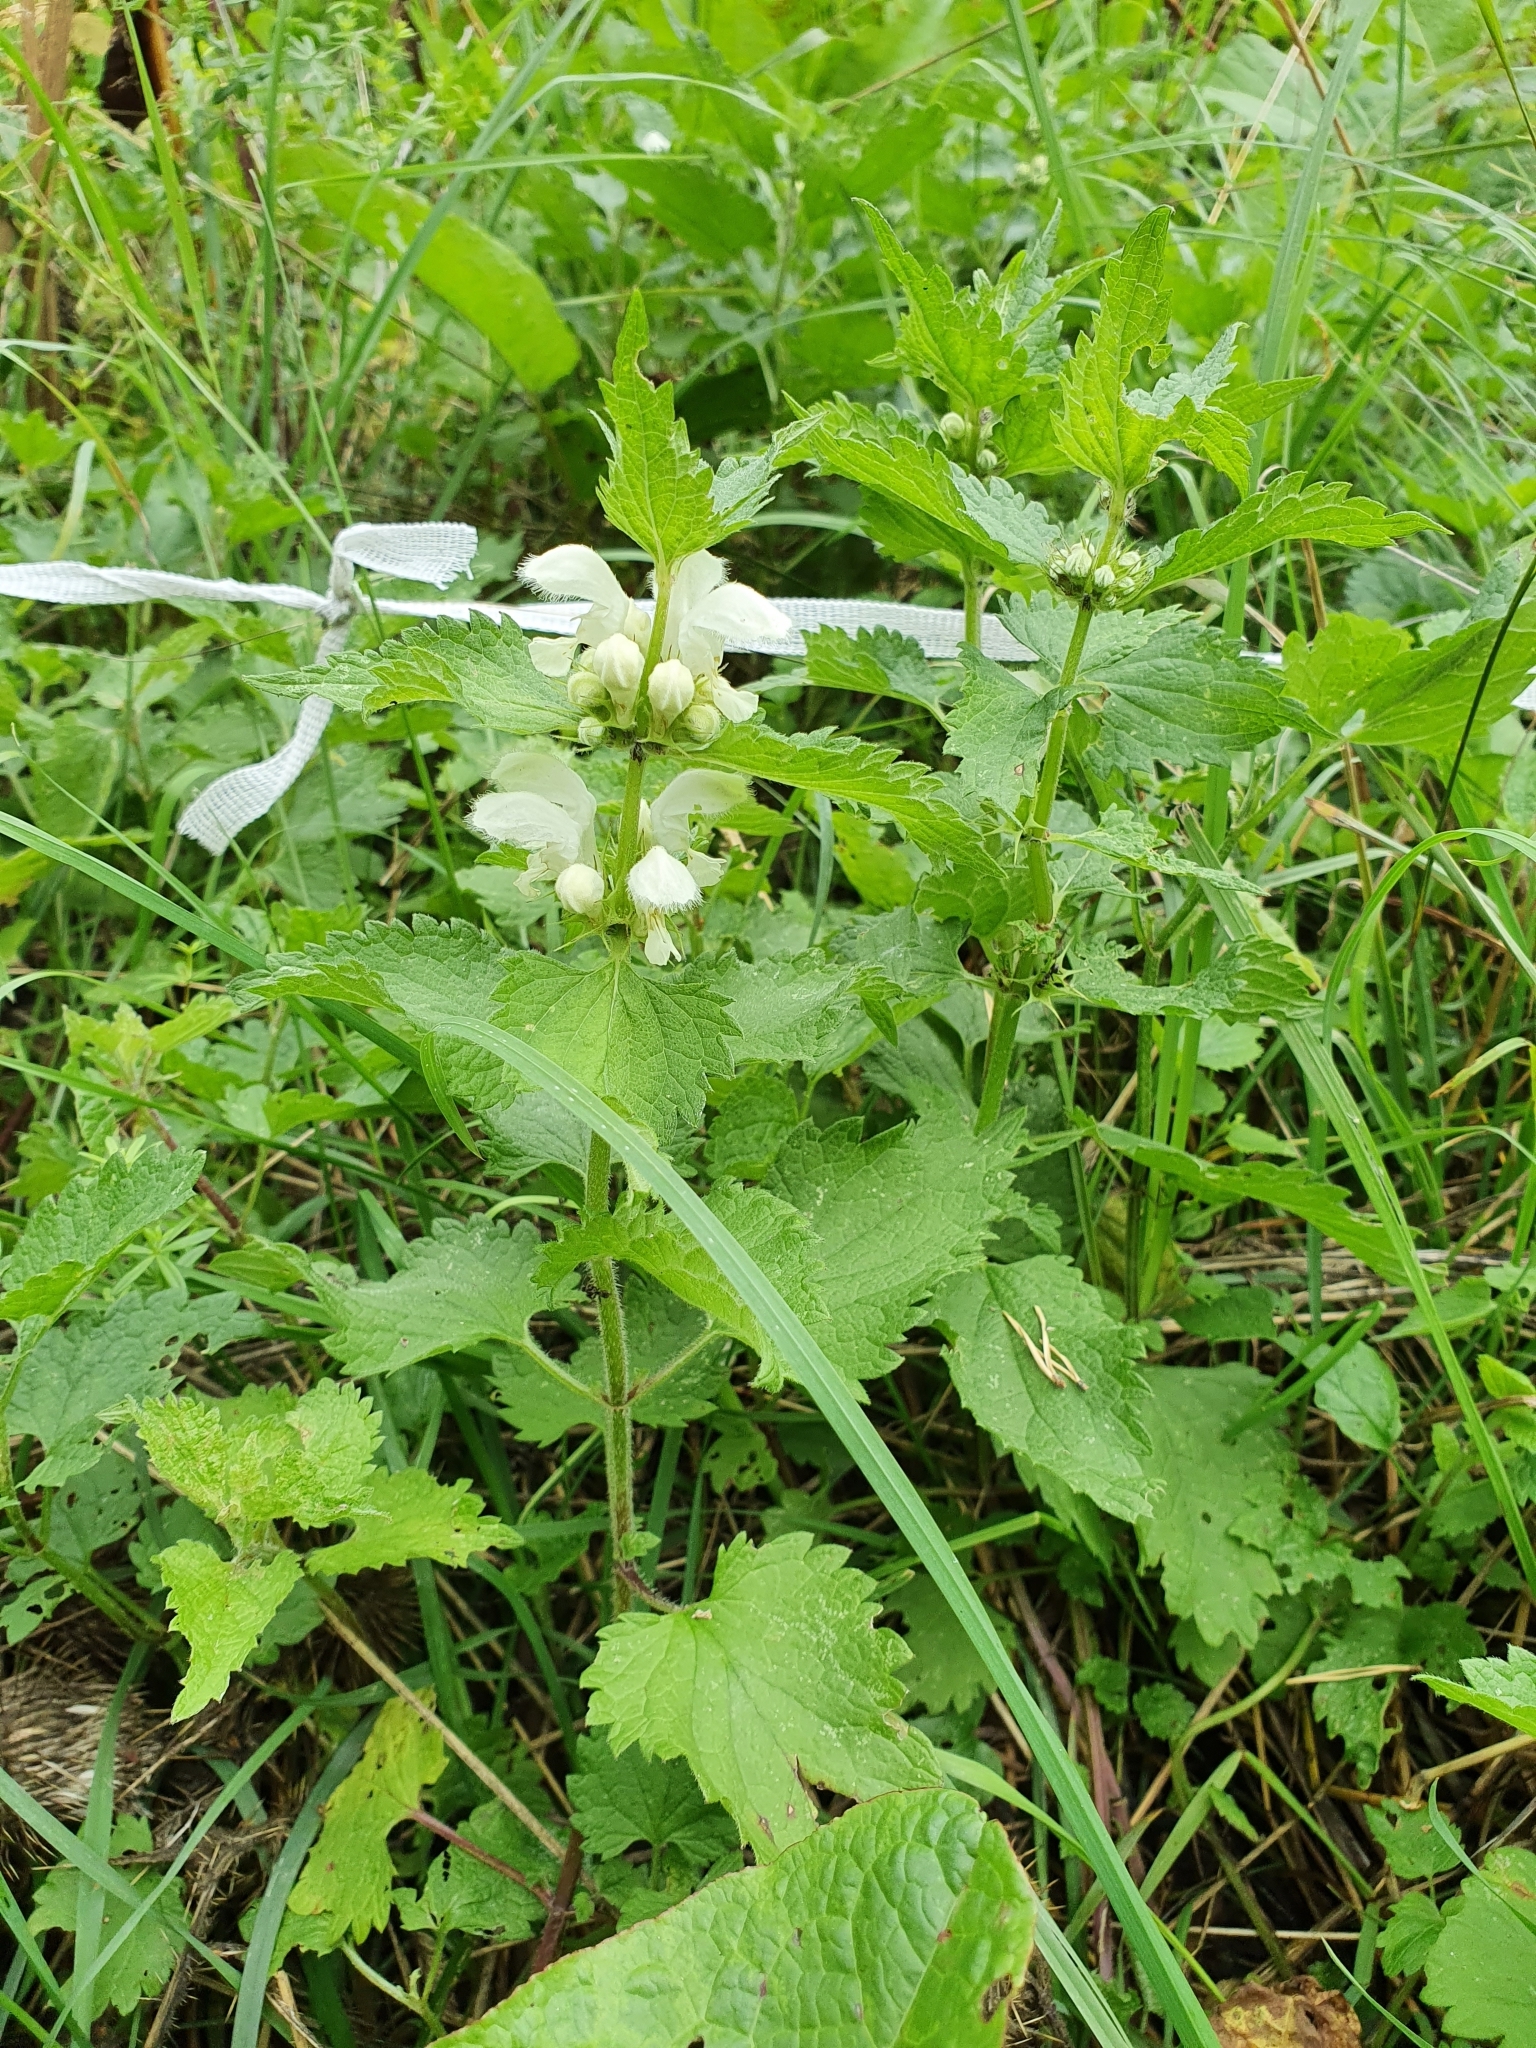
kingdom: Plantae
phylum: Tracheophyta
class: Magnoliopsida
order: Lamiales
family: Lamiaceae
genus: Lamium
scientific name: Lamium album
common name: White dead-nettle
